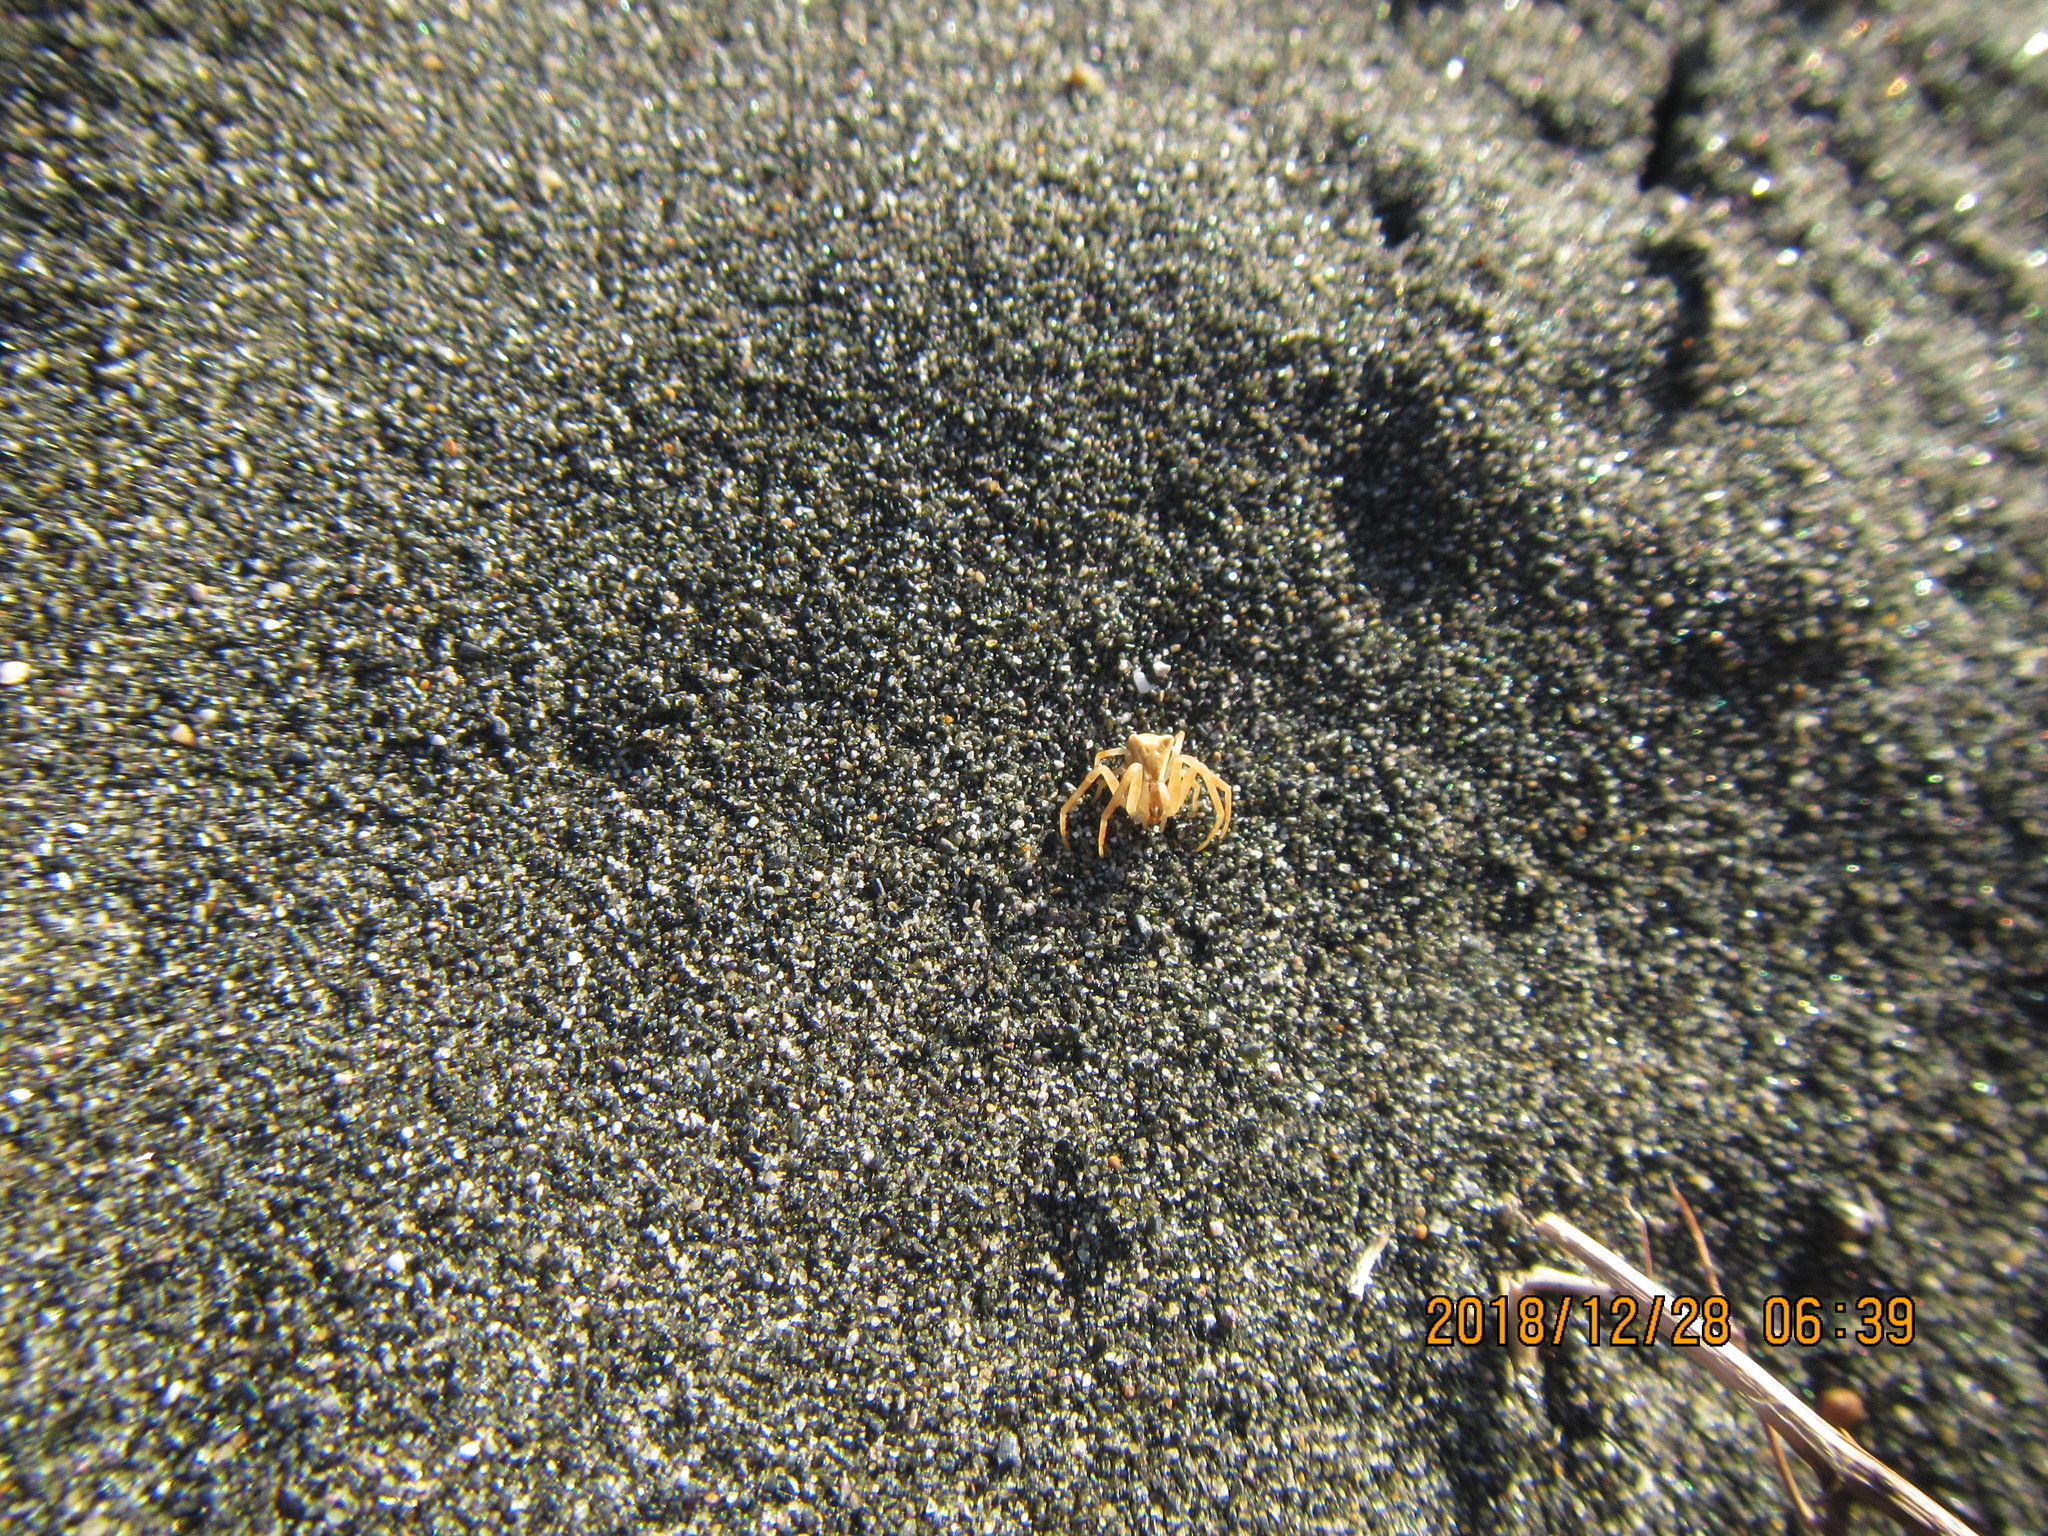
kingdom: Animalia
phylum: Arthropoda
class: Arachnida
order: Araneae
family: Thomisidae
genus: Sidymella
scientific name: Sidymella trapezia
